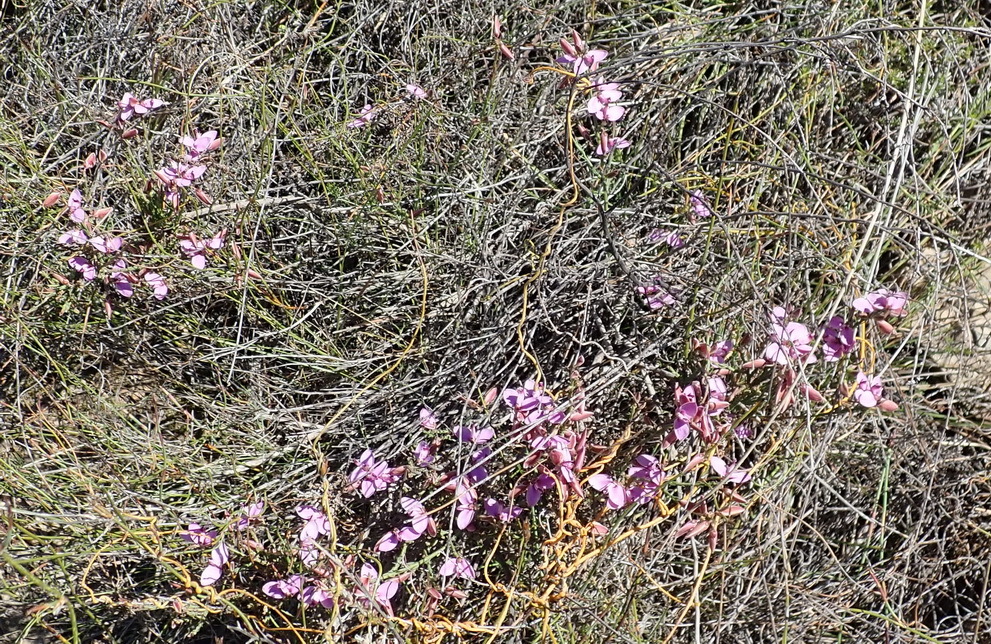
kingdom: Plantae
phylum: Tracheophyta
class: Magnoliopsida
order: Fabales
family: Polygalaceae
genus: Polygala
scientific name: Polygala microlopha
